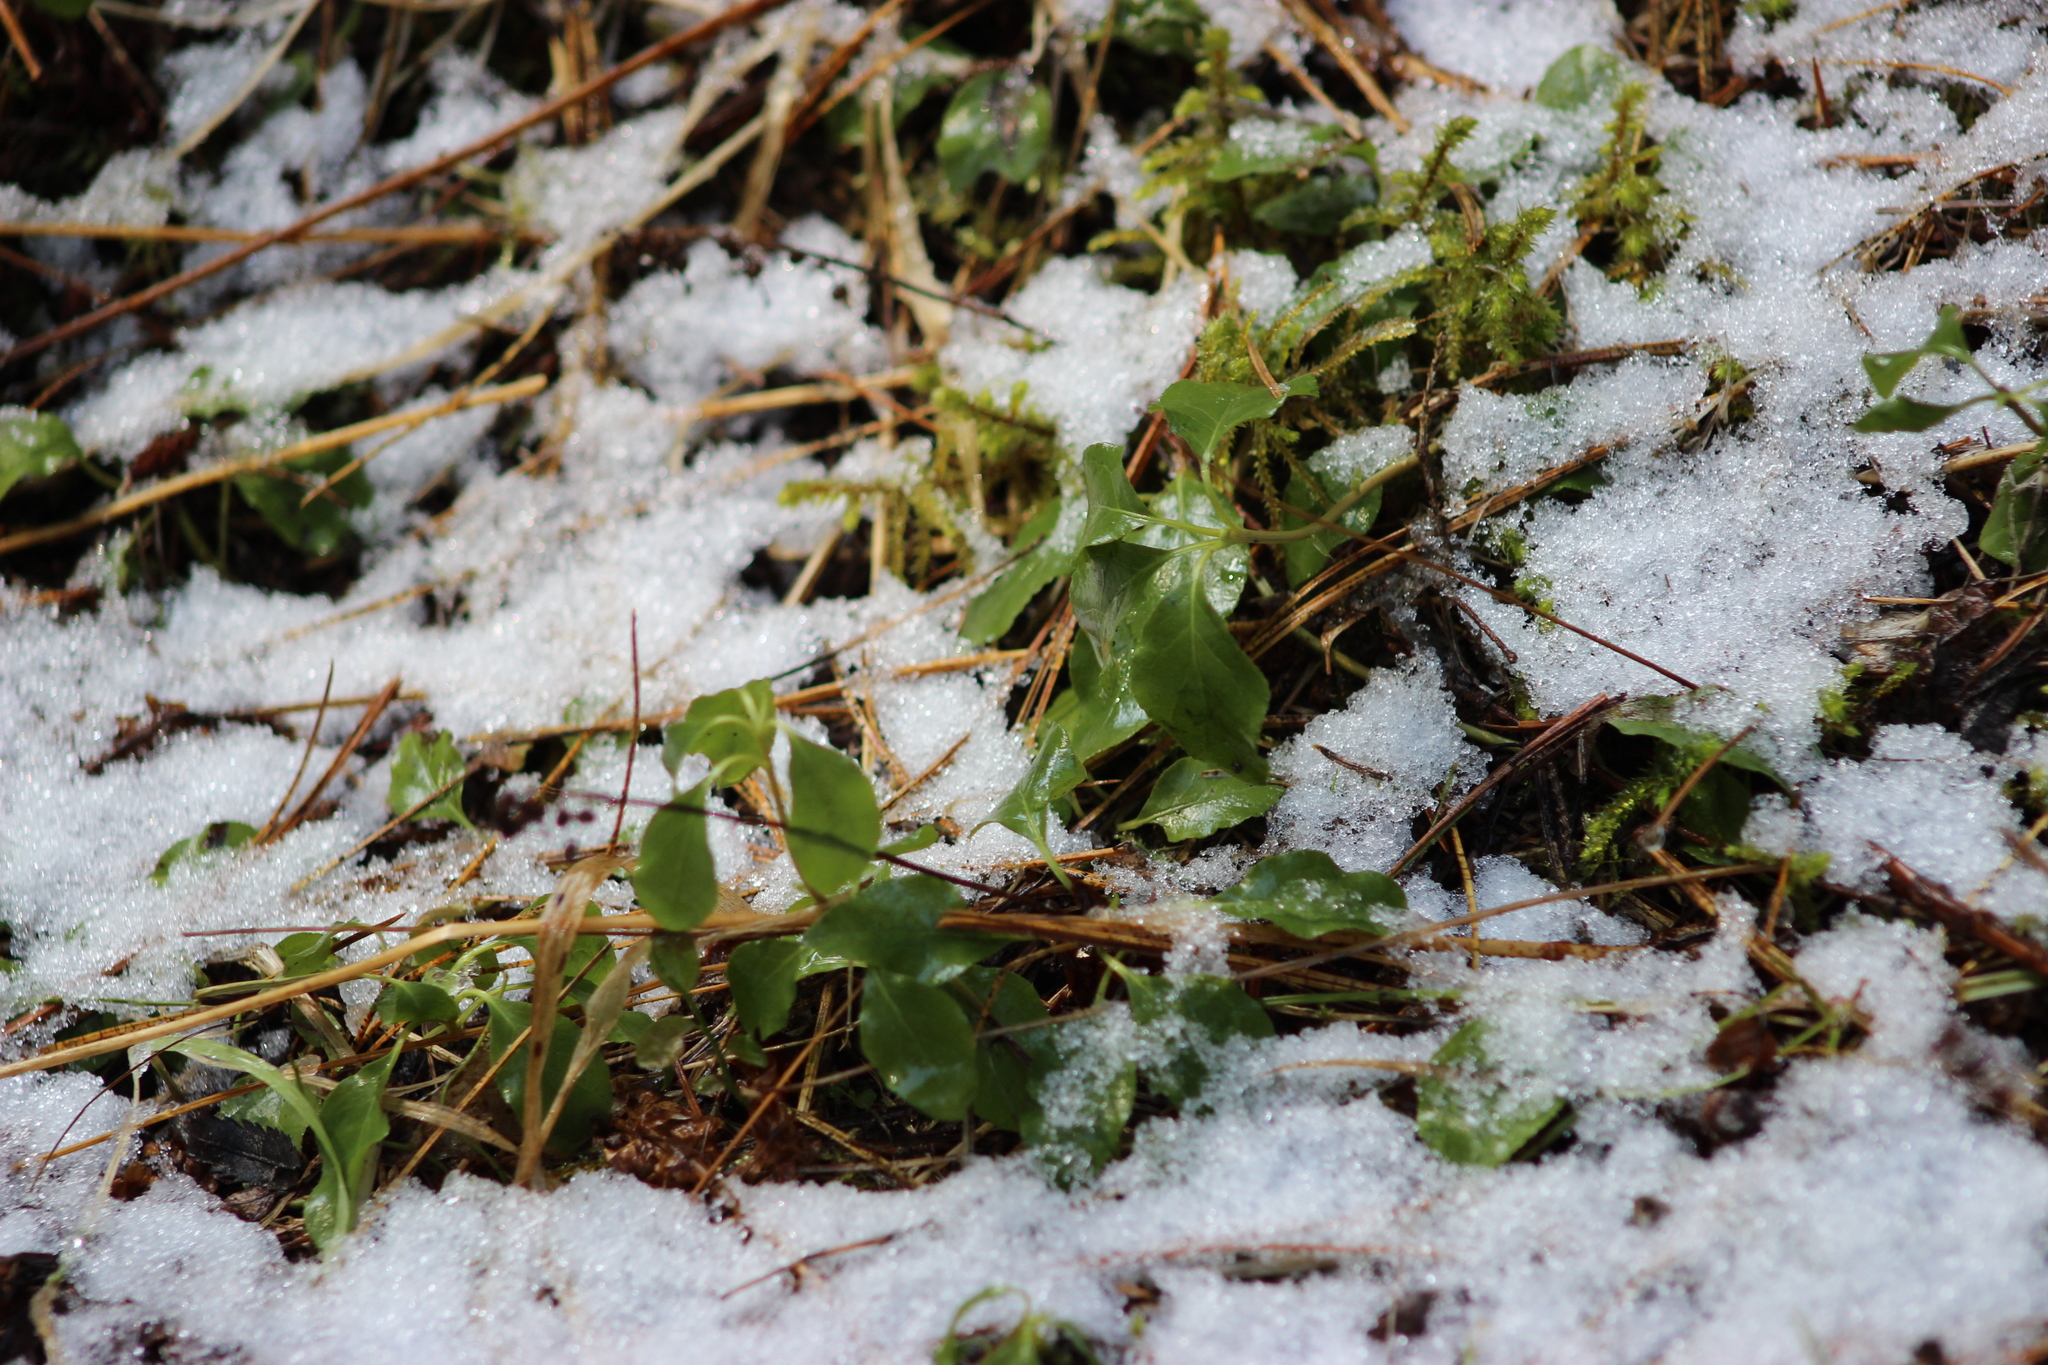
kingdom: Plantae
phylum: Tracheophyta
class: Magnoliopsida
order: Ericales
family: Ericaceae
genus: Orthilia
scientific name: Orthilia secunda
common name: One-sided orthilia
